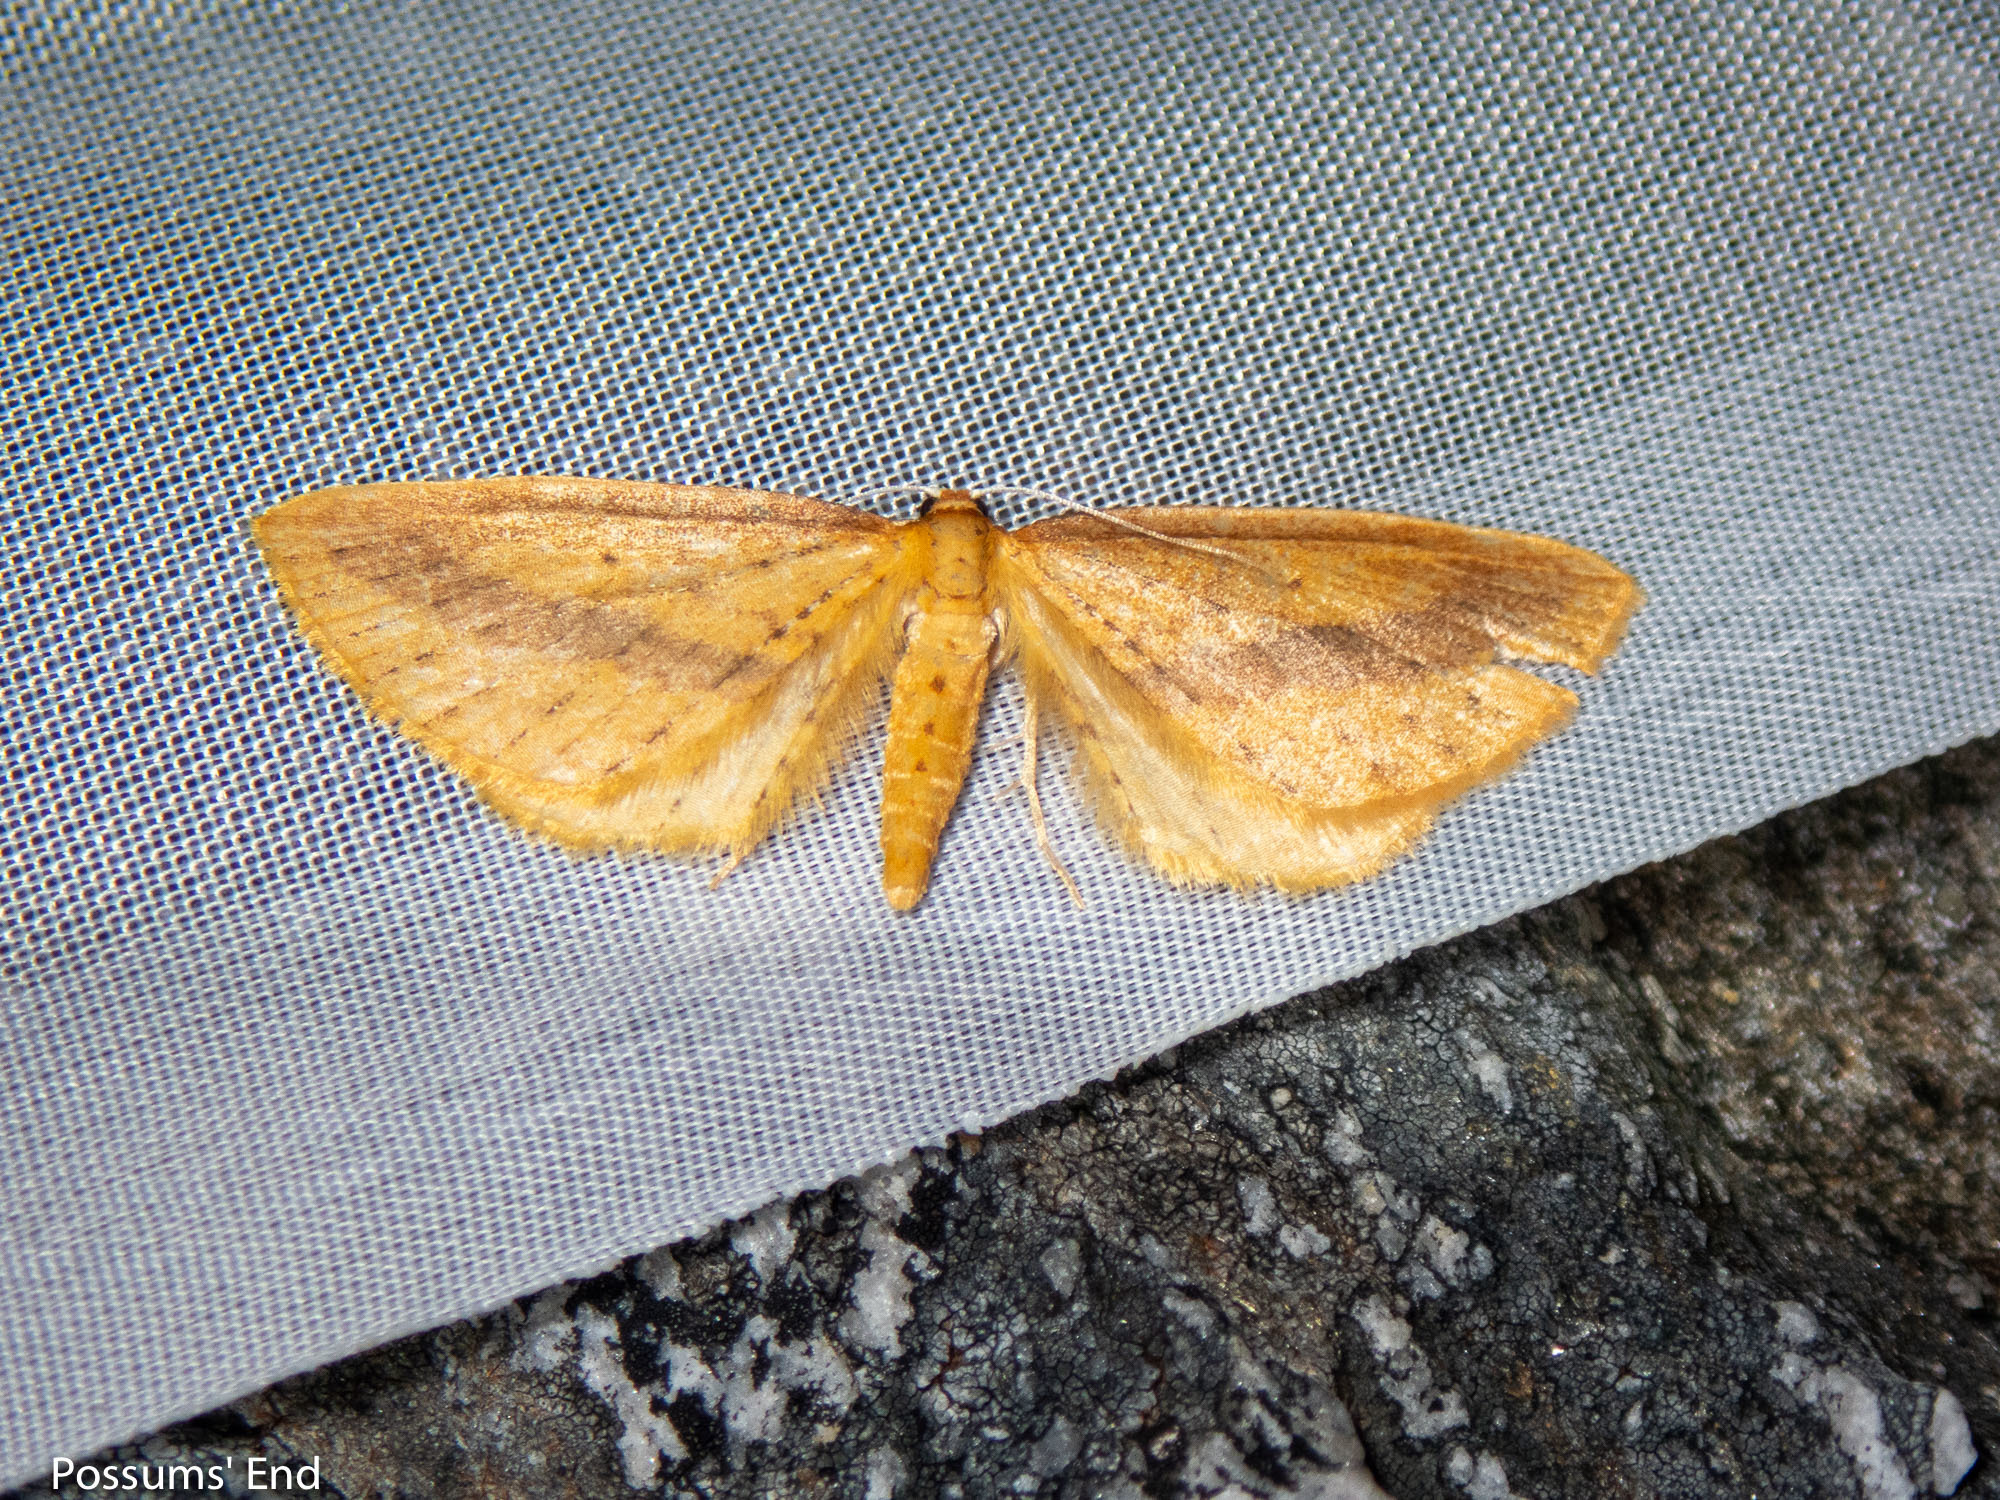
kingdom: Animalia
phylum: Arthropoda
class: Insecta
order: Lepidoptera
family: Geometridae
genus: Epiphryne
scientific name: Epiphryne charidema
